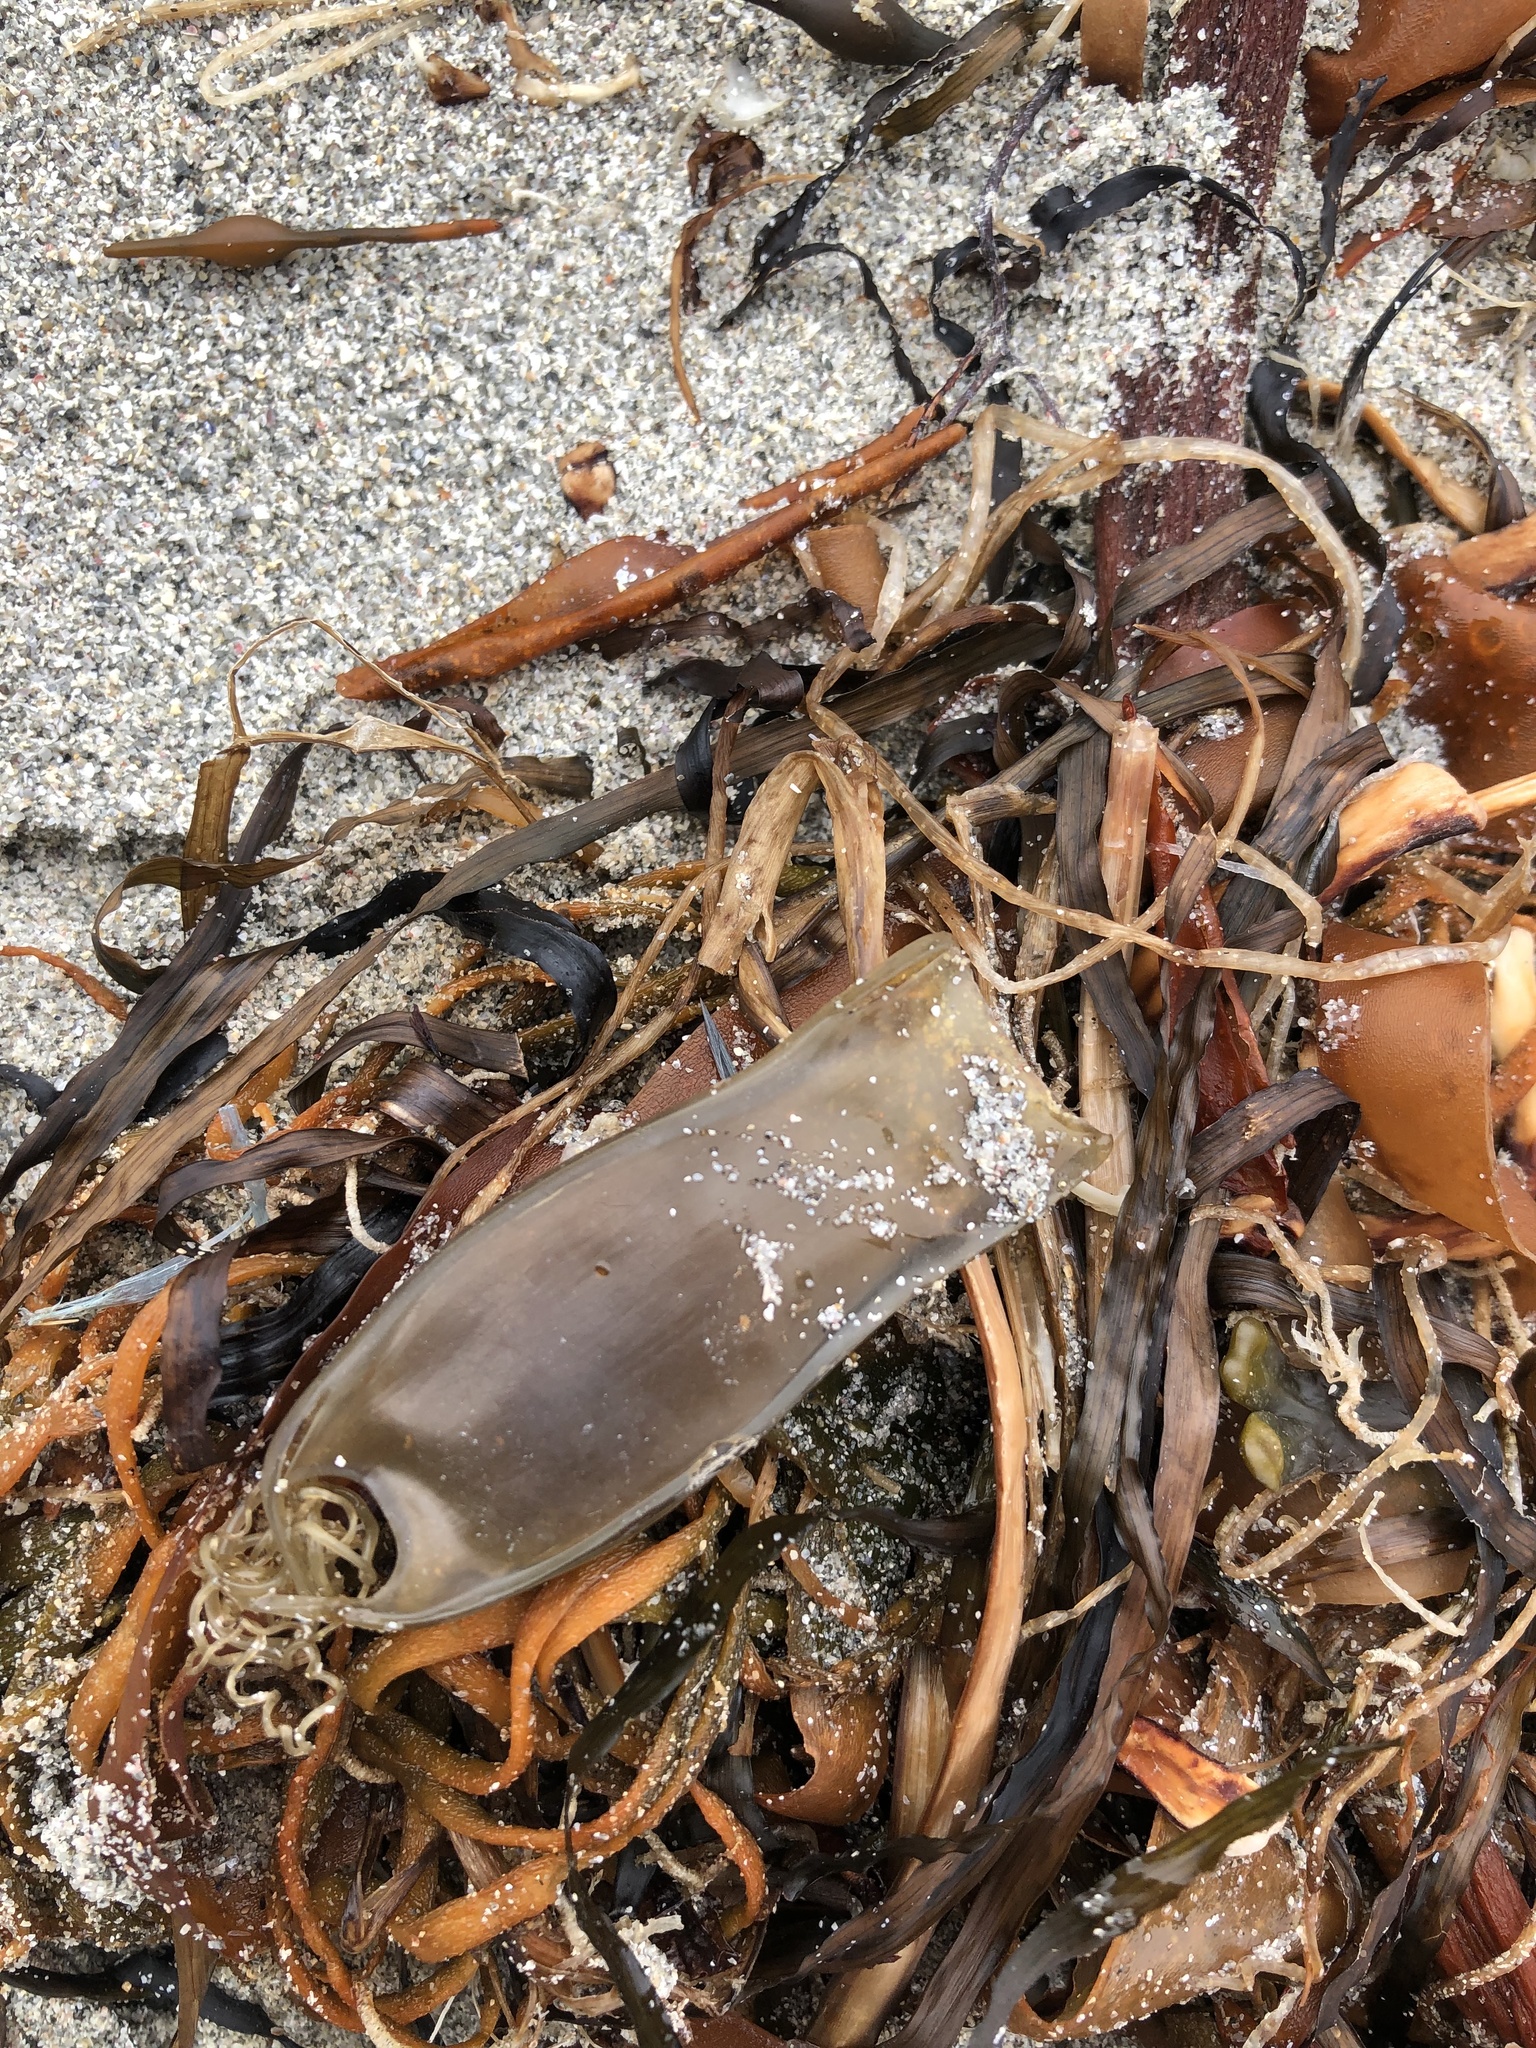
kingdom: Animalia
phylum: Chordata
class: Elasmobranchii
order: Carcharhiniformes
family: Scyliorhinidae
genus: Scyliorhinus
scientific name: Scyliorhinus canicula
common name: Lesser spotted dogfish
